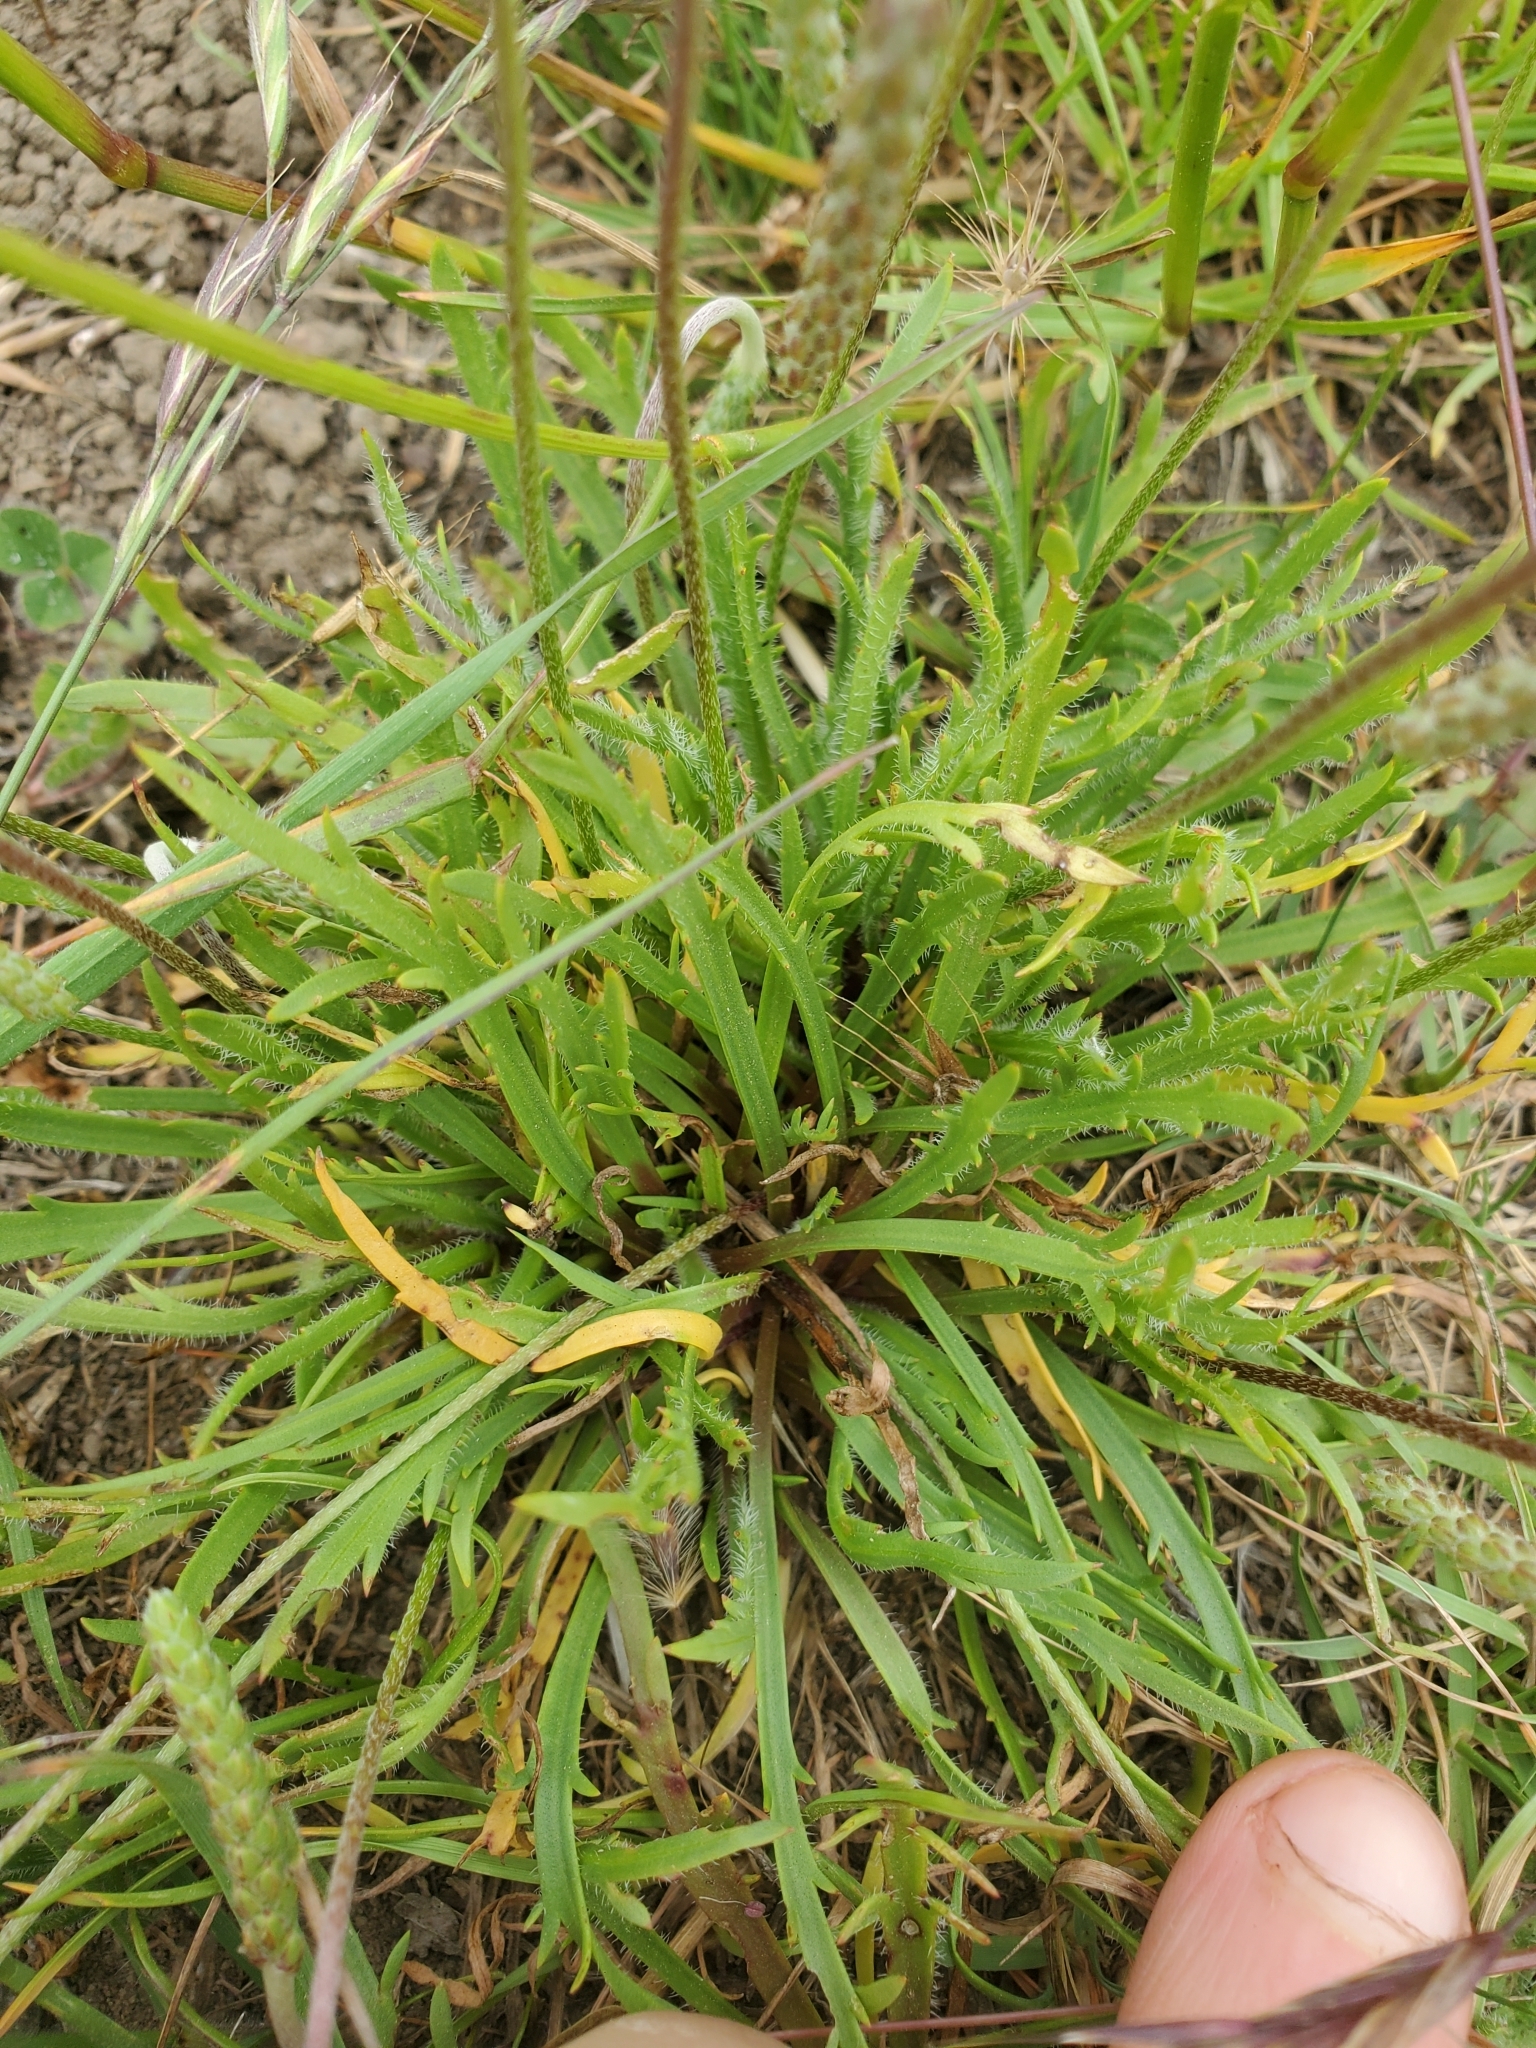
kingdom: Plantae
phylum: Tracheophyta
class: Magnoliopsida
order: Lamiales
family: Plantaginaceae
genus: Plantago
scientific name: Plantago coronopus
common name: Buck's-horn plantain
